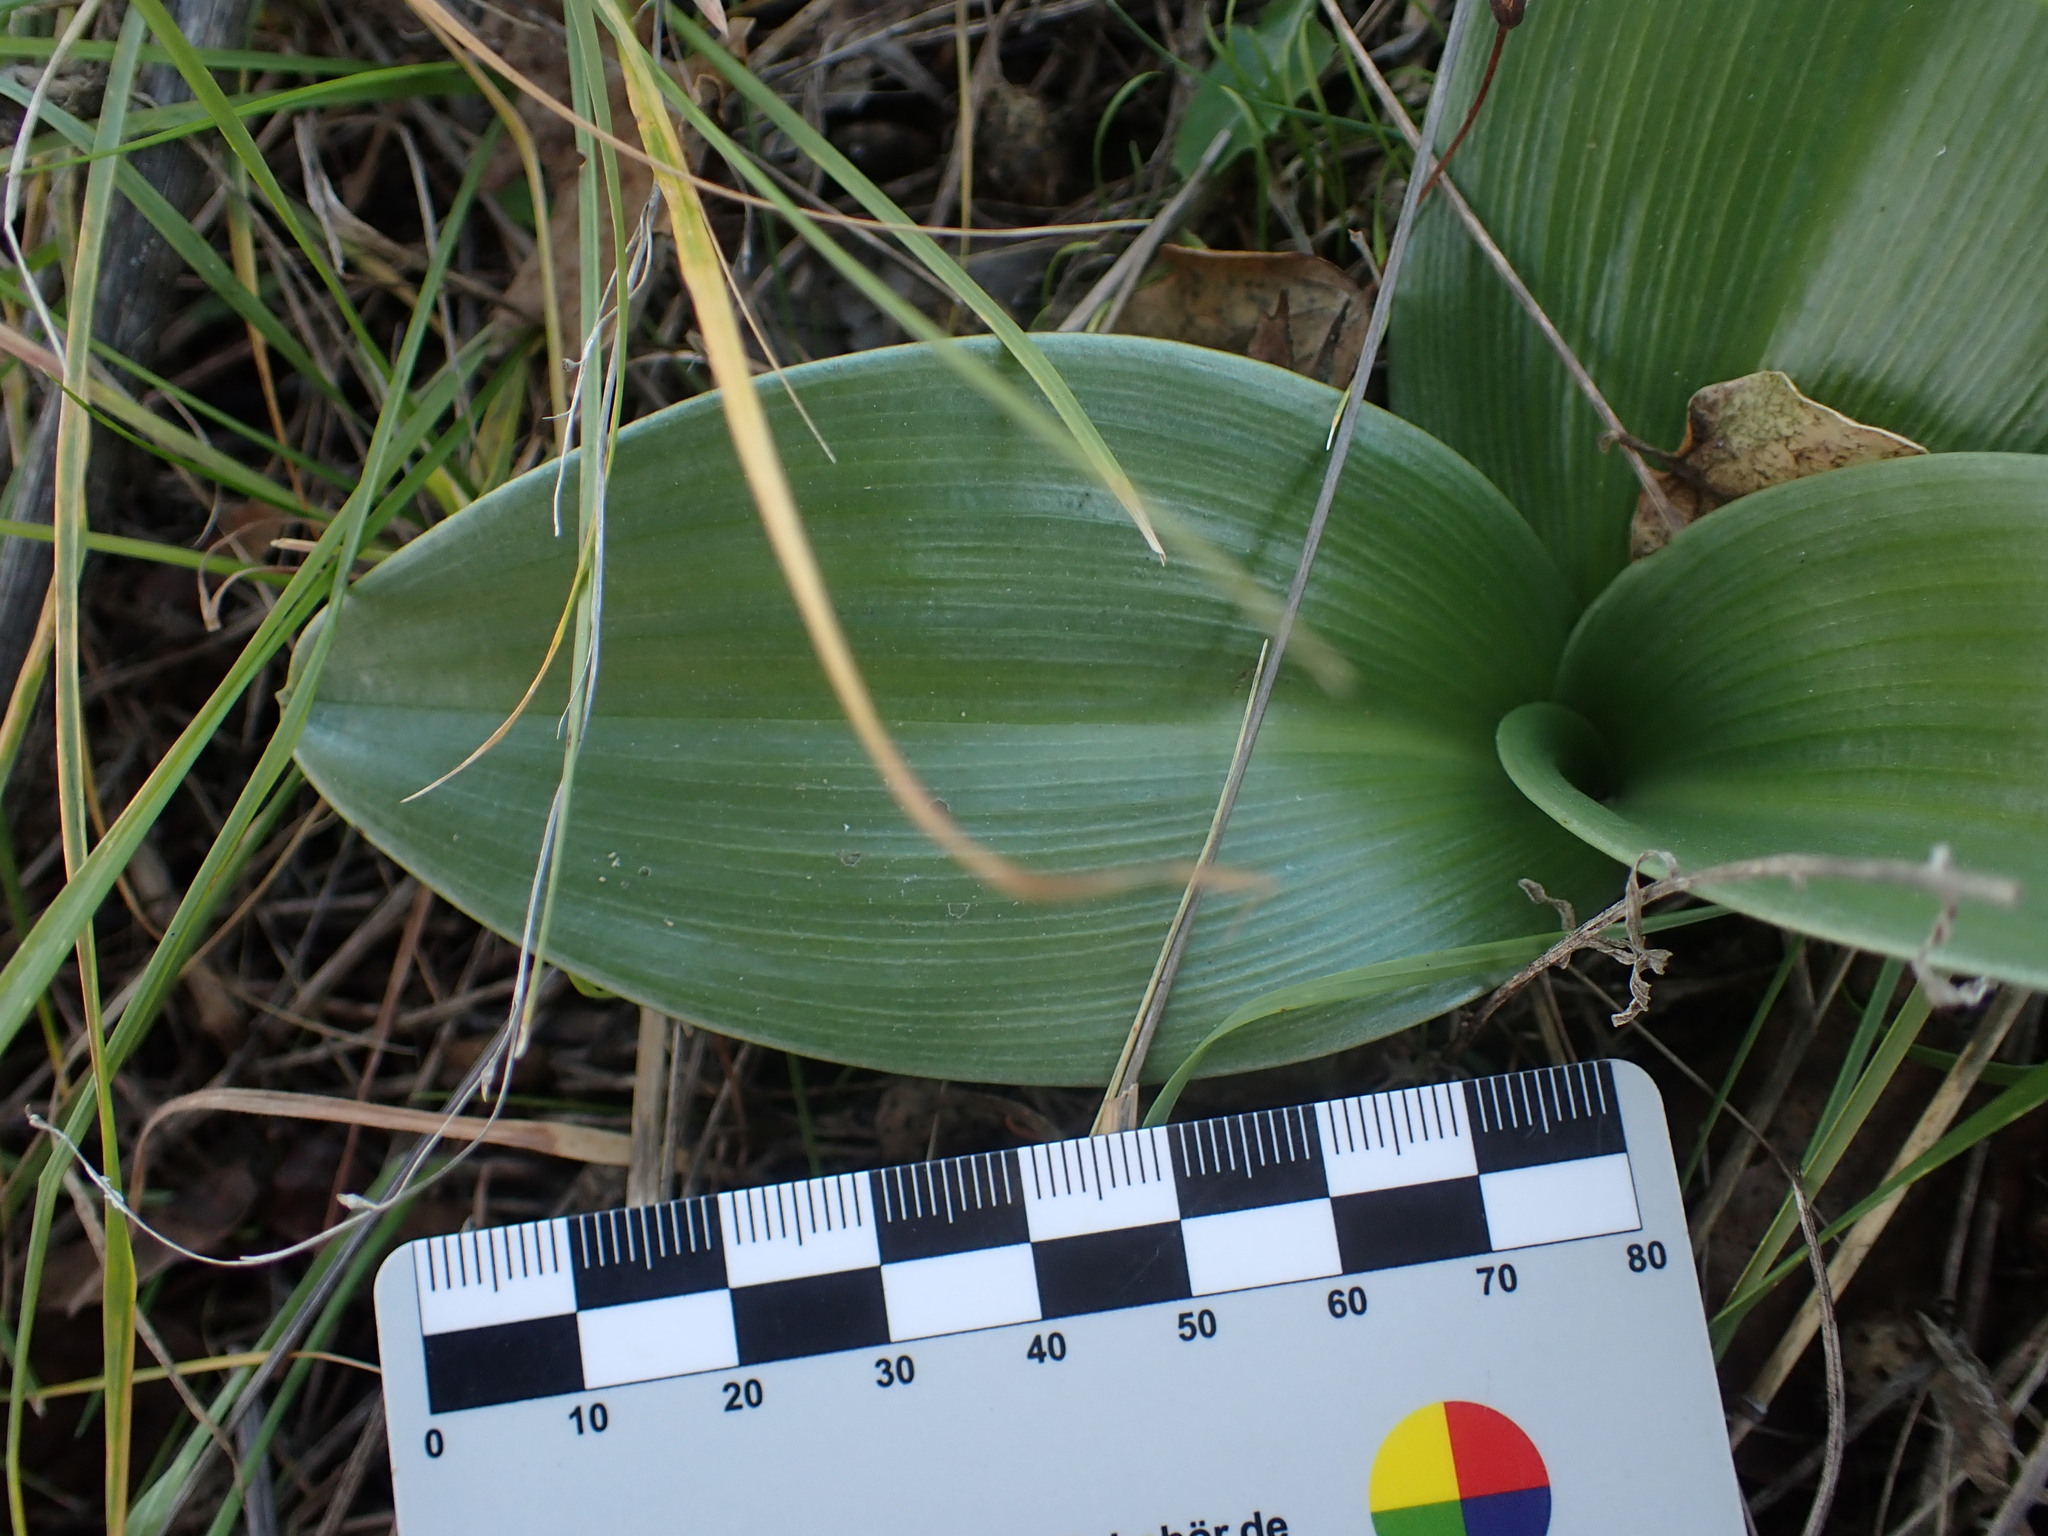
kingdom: Plantae
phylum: Tracheophyta
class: Liliopsida
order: Asparagales
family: Orchidaceae
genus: Himantoglossum
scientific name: Himantoglossum robertianum
